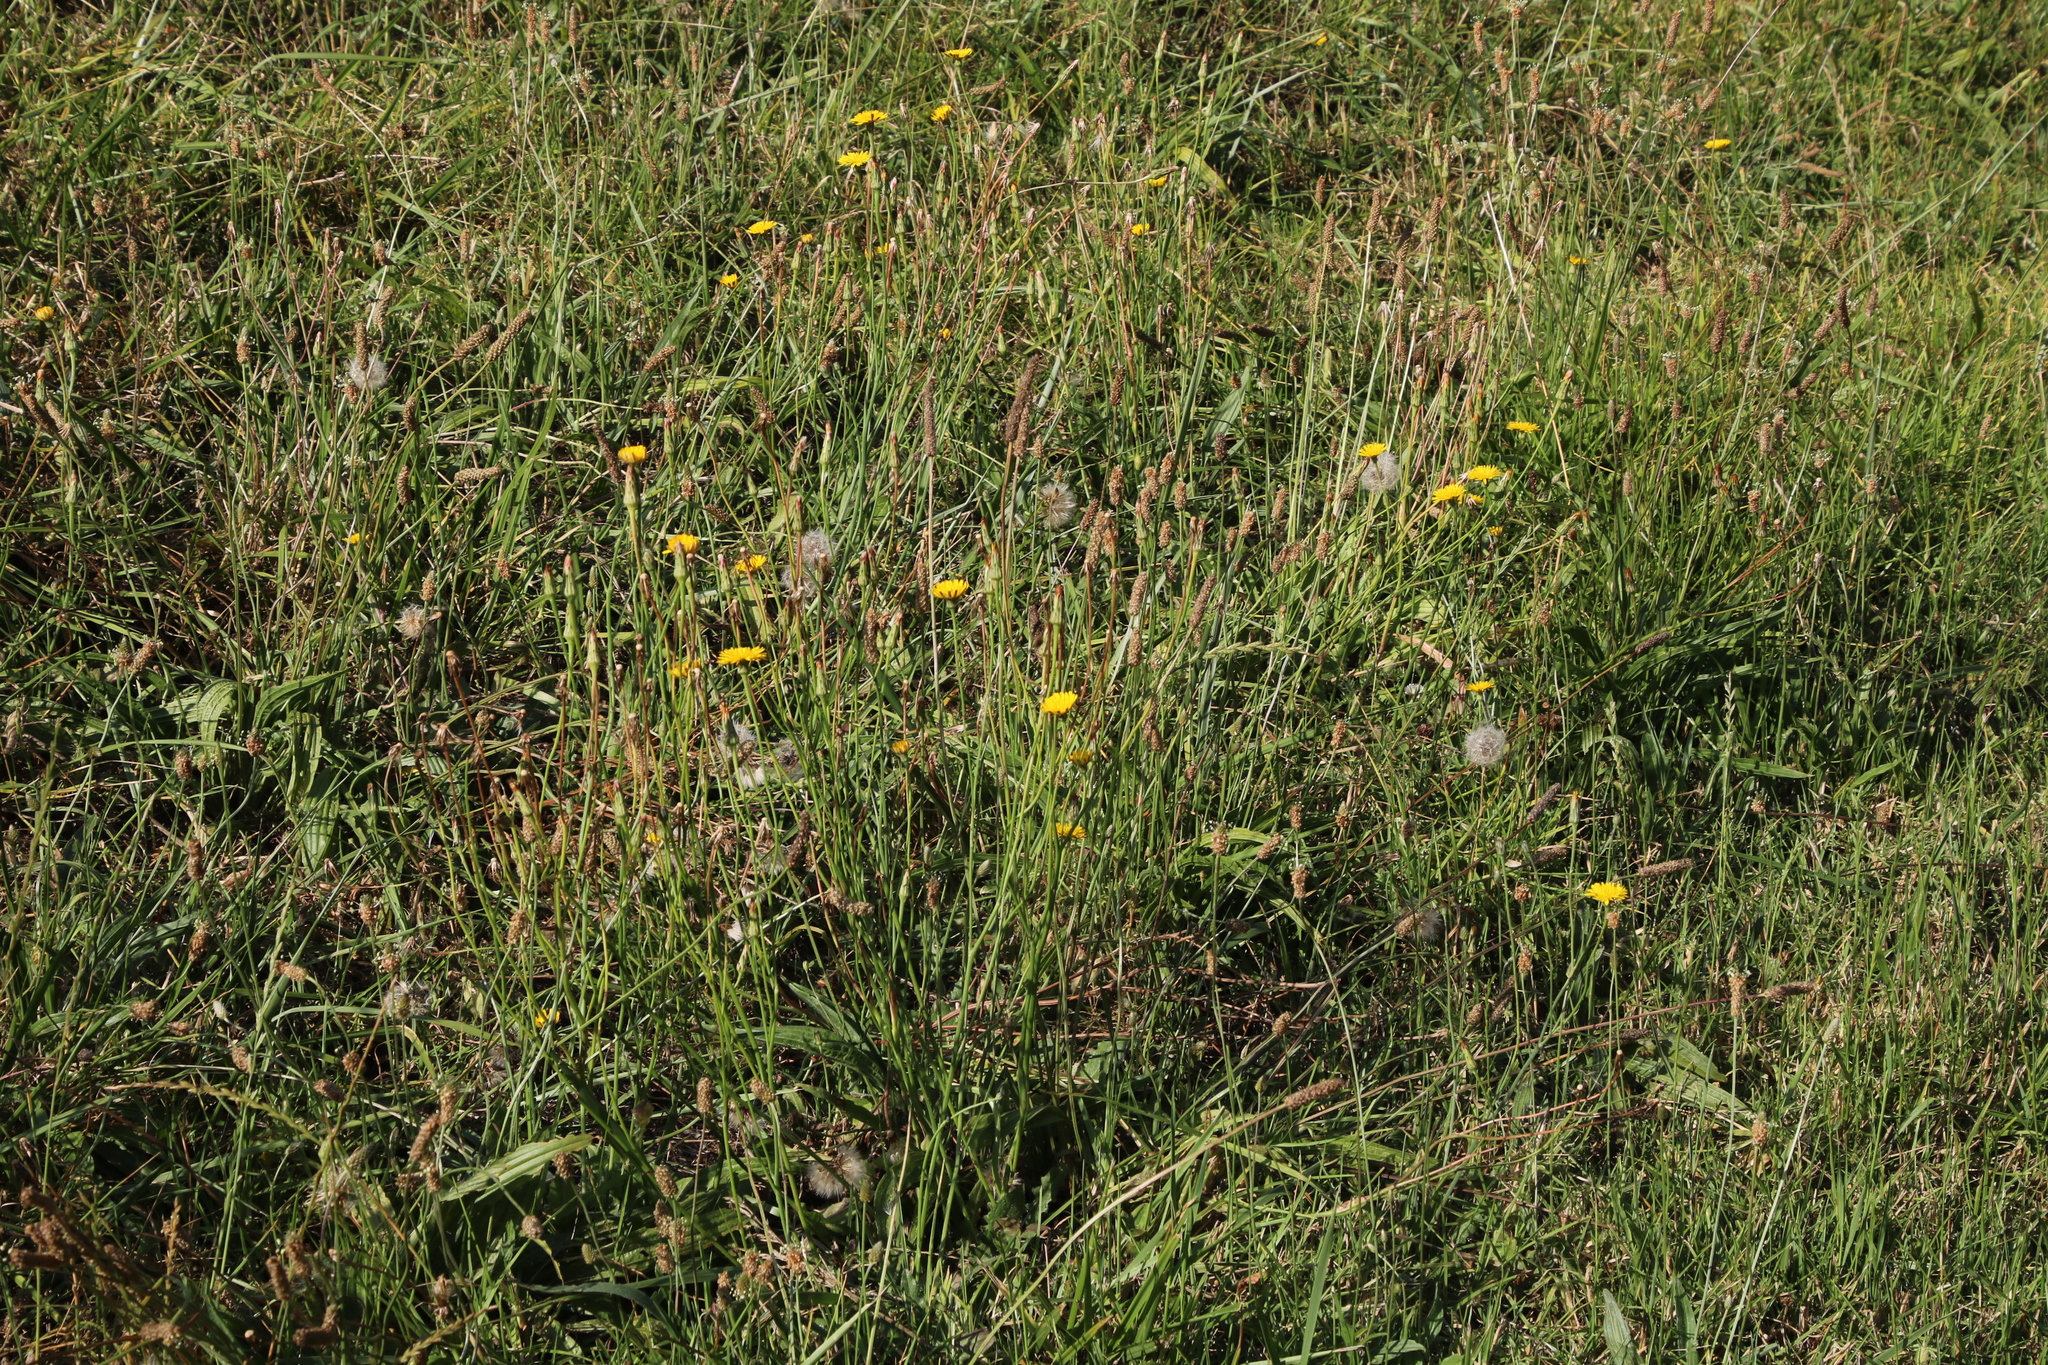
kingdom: Plantae
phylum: Tracheophyta
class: Magnoliopsida
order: Lamiales
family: Plantaginaceae
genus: Plantago
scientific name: Plantago lanceolata
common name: Ribwort plantain
